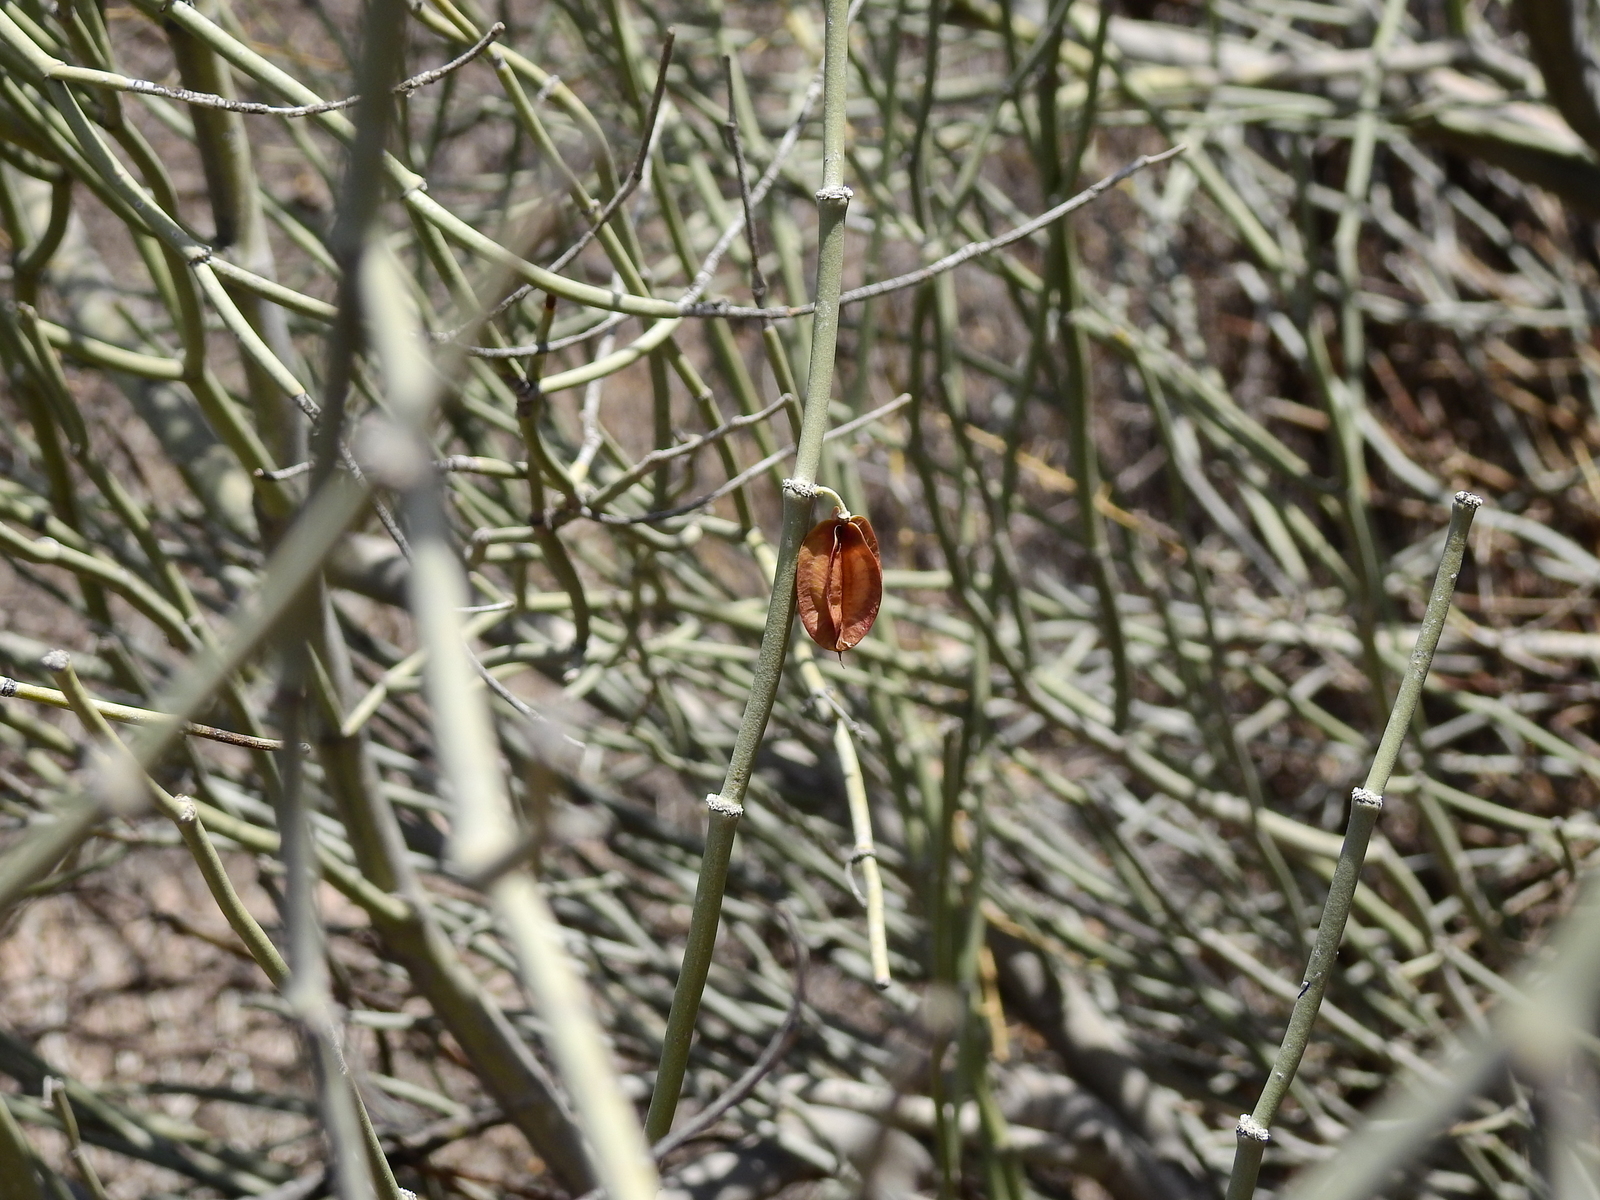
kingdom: Plantae
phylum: Tracheophyta
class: Magnoliopsida
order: Zygophyllales
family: Zygophyllaceae
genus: Bulnesia
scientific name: Bulnesia retama
